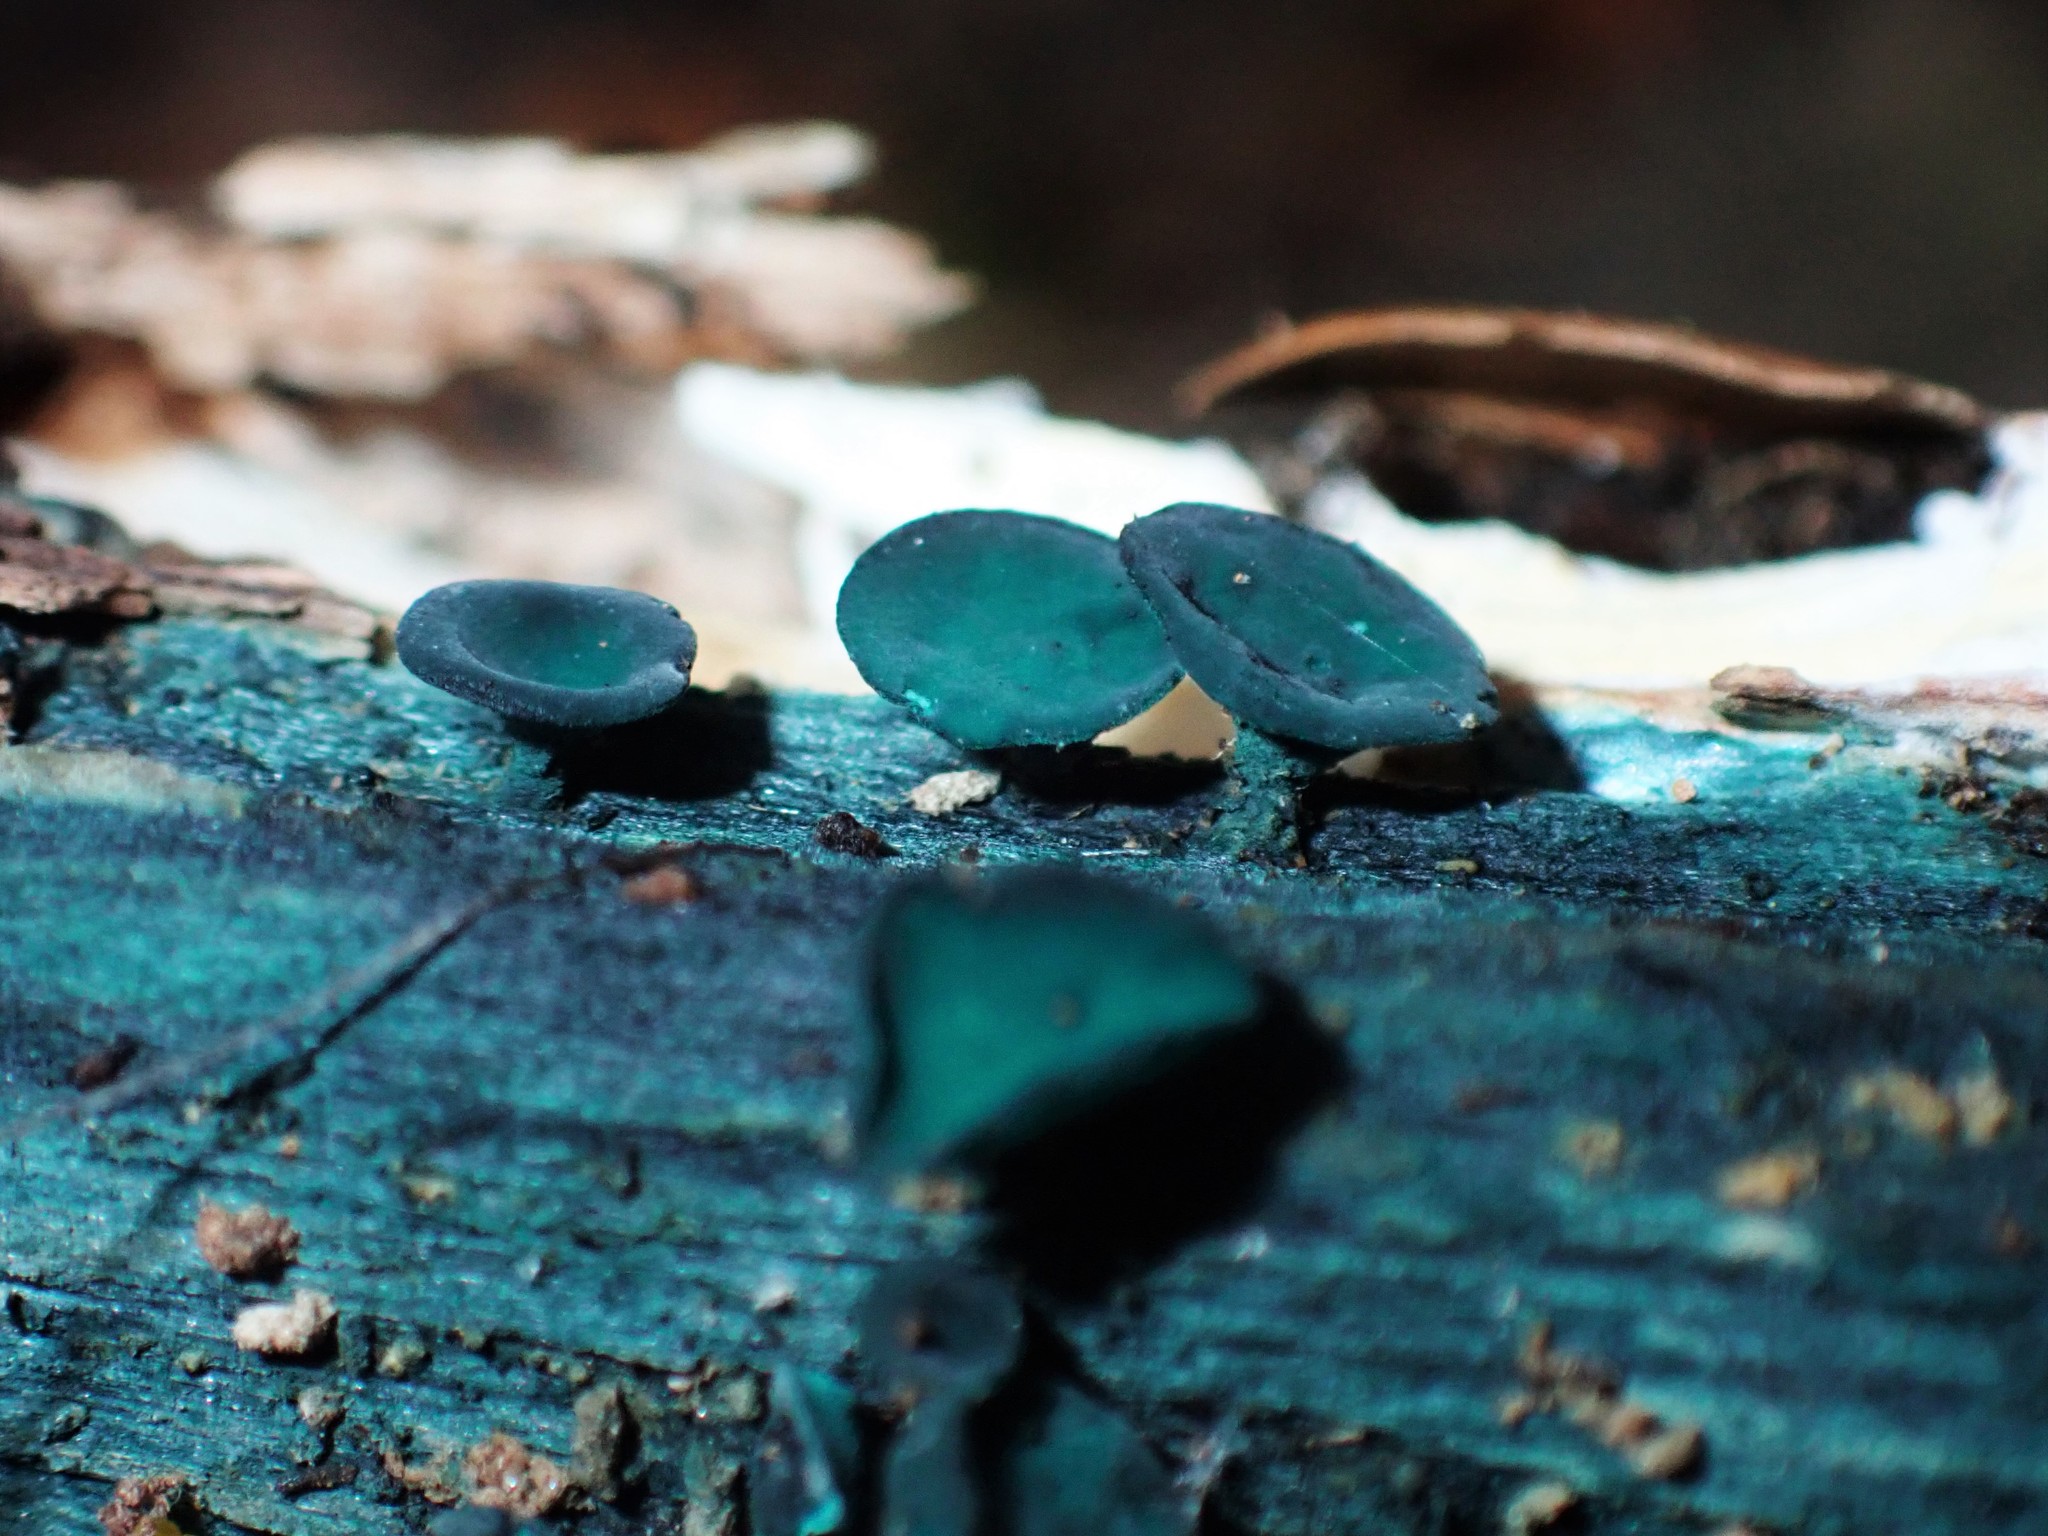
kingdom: Fungi
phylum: Ascomycota
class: Leotiomycetes
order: Helotiales
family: Chlorociboriaceae
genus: Chlorociboria
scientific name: Chlorociboria
